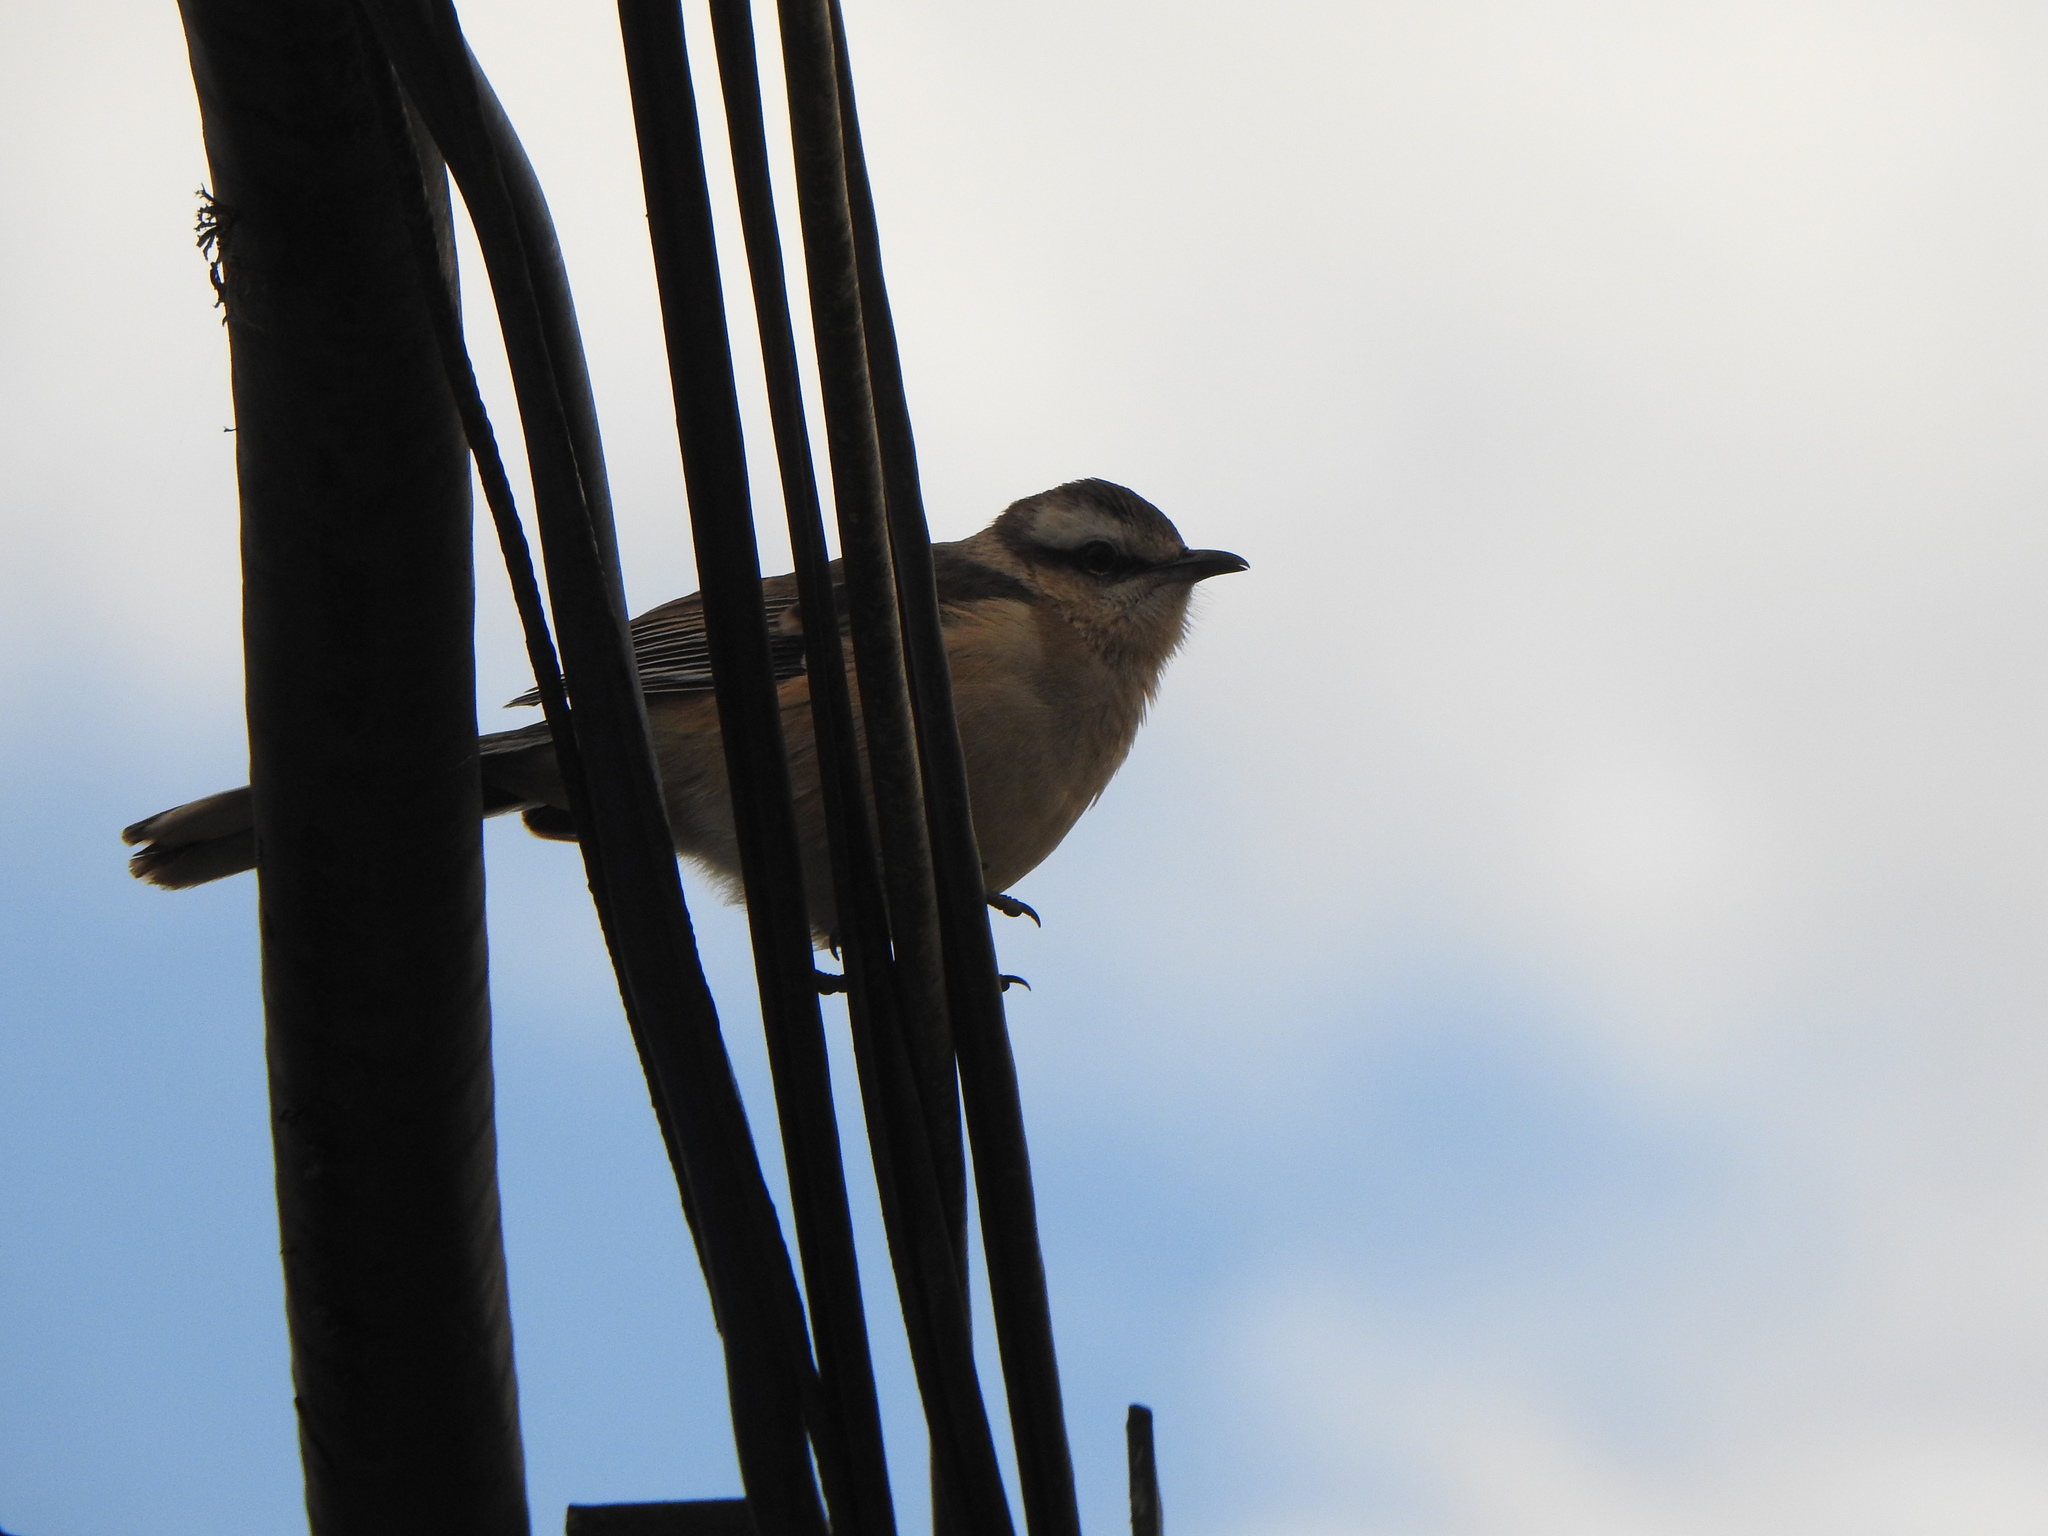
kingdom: Animalia
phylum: Chordata
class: Aves
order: Passeriformes
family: Mimidae
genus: Mimus
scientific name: Mimus saturninus
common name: Chalk-browed mockingbird
